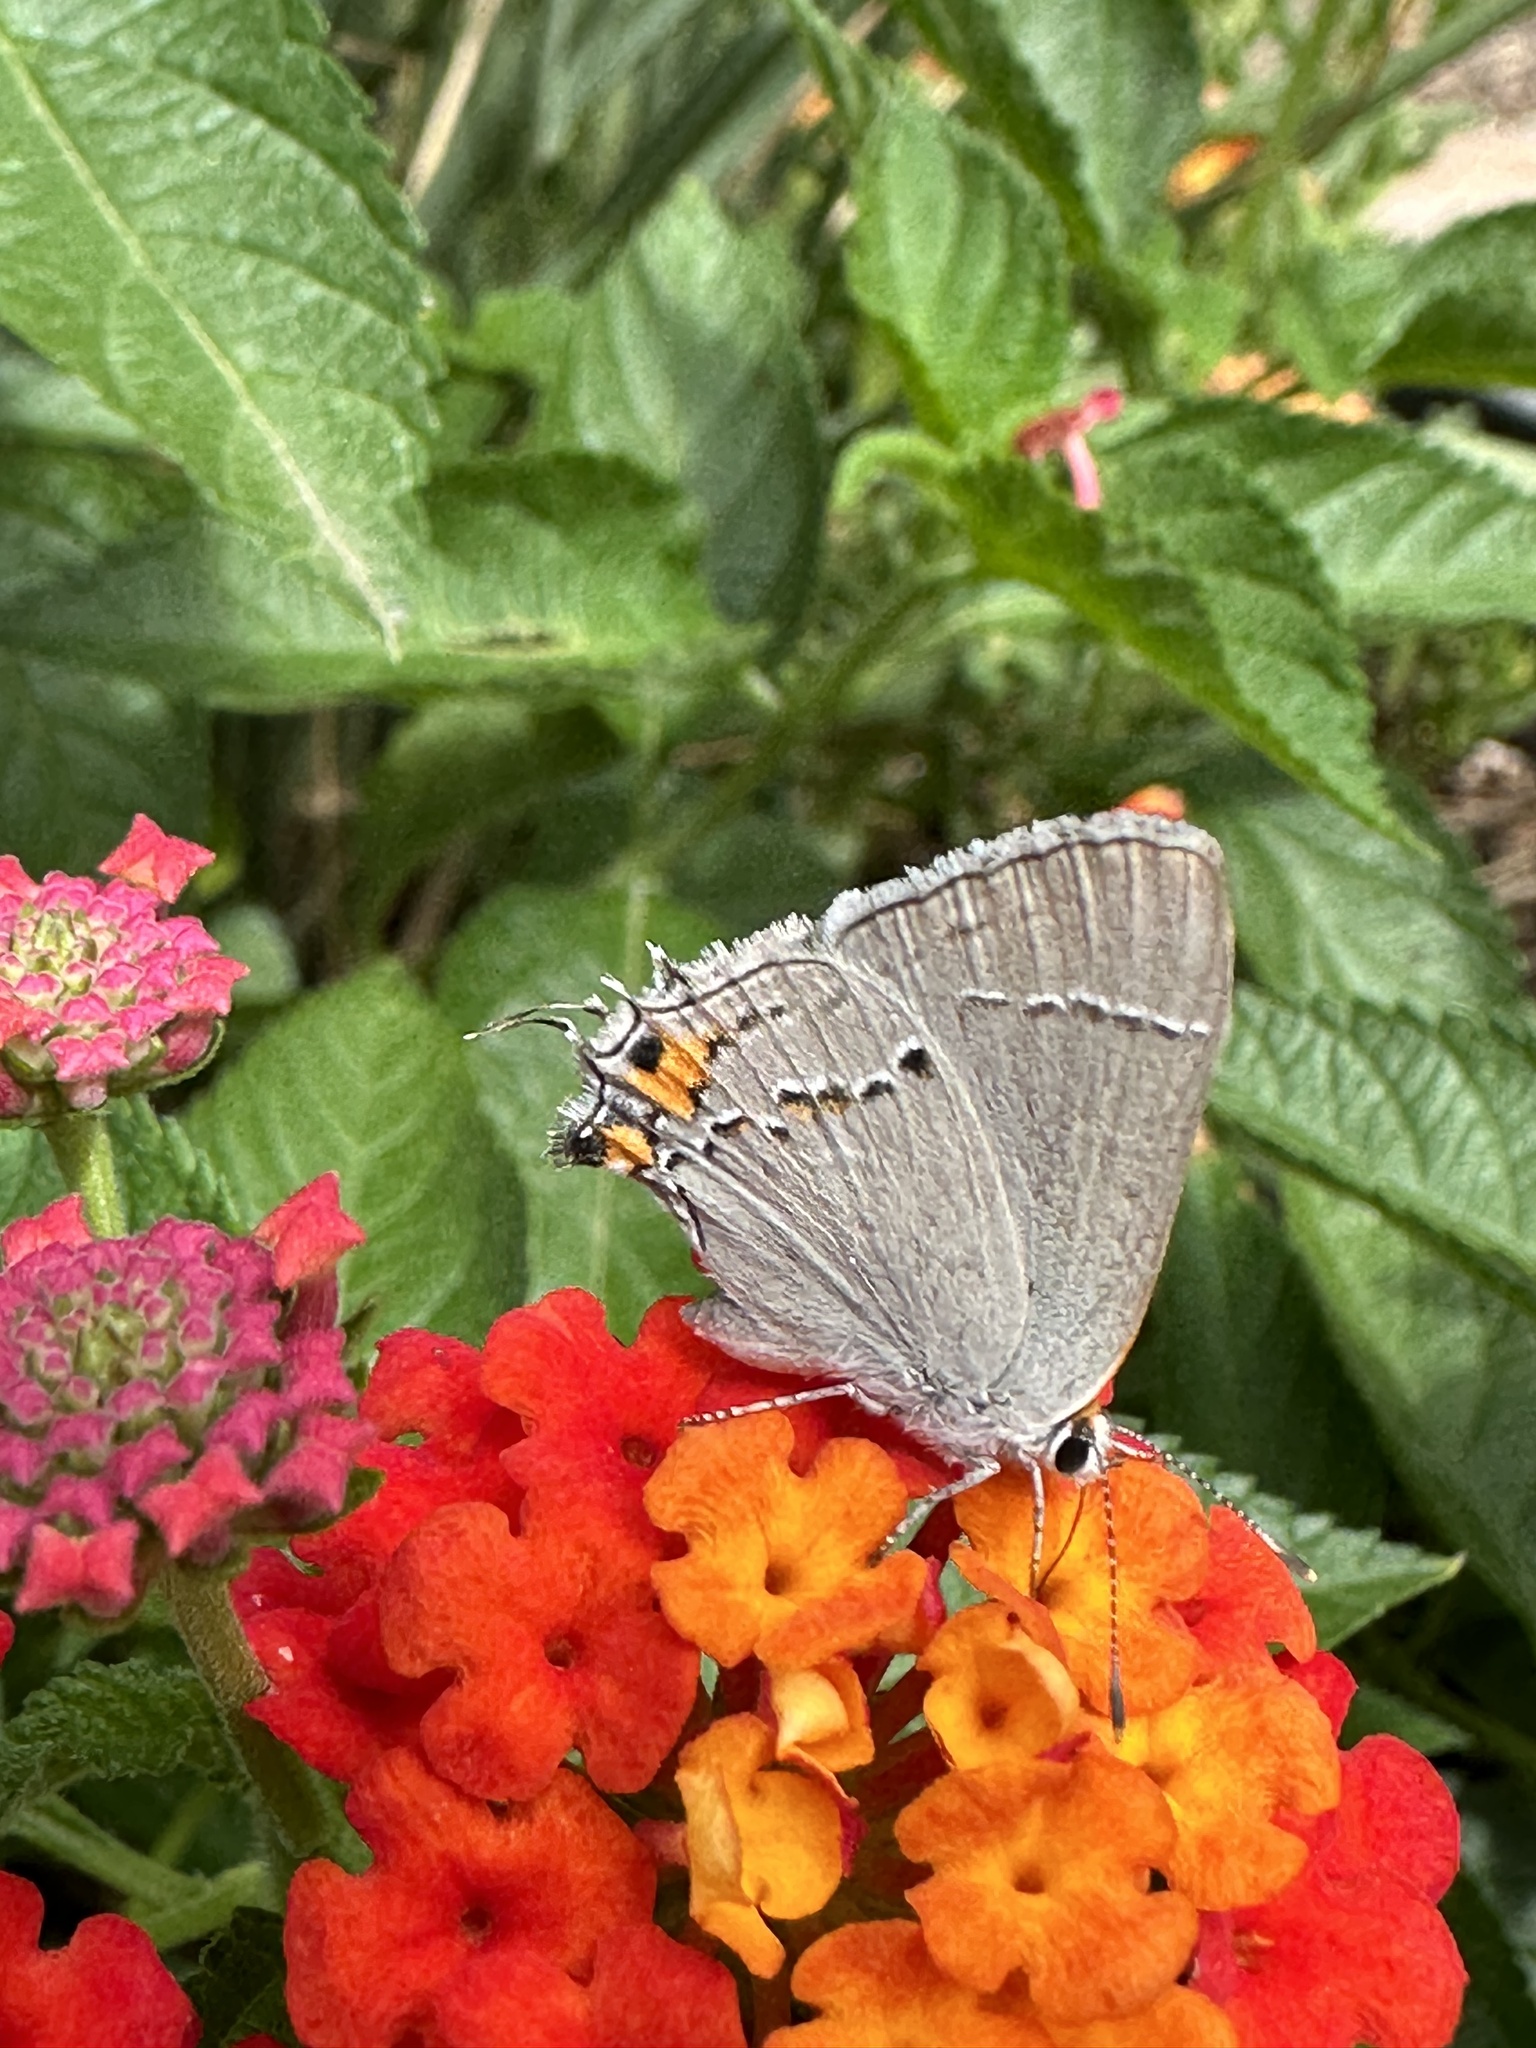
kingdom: Animalia
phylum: Arthropoda
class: Insecta
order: Lepidoptera
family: Lycaenidae
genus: Strymon
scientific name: Strymon melinus
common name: Gray hairstreak
